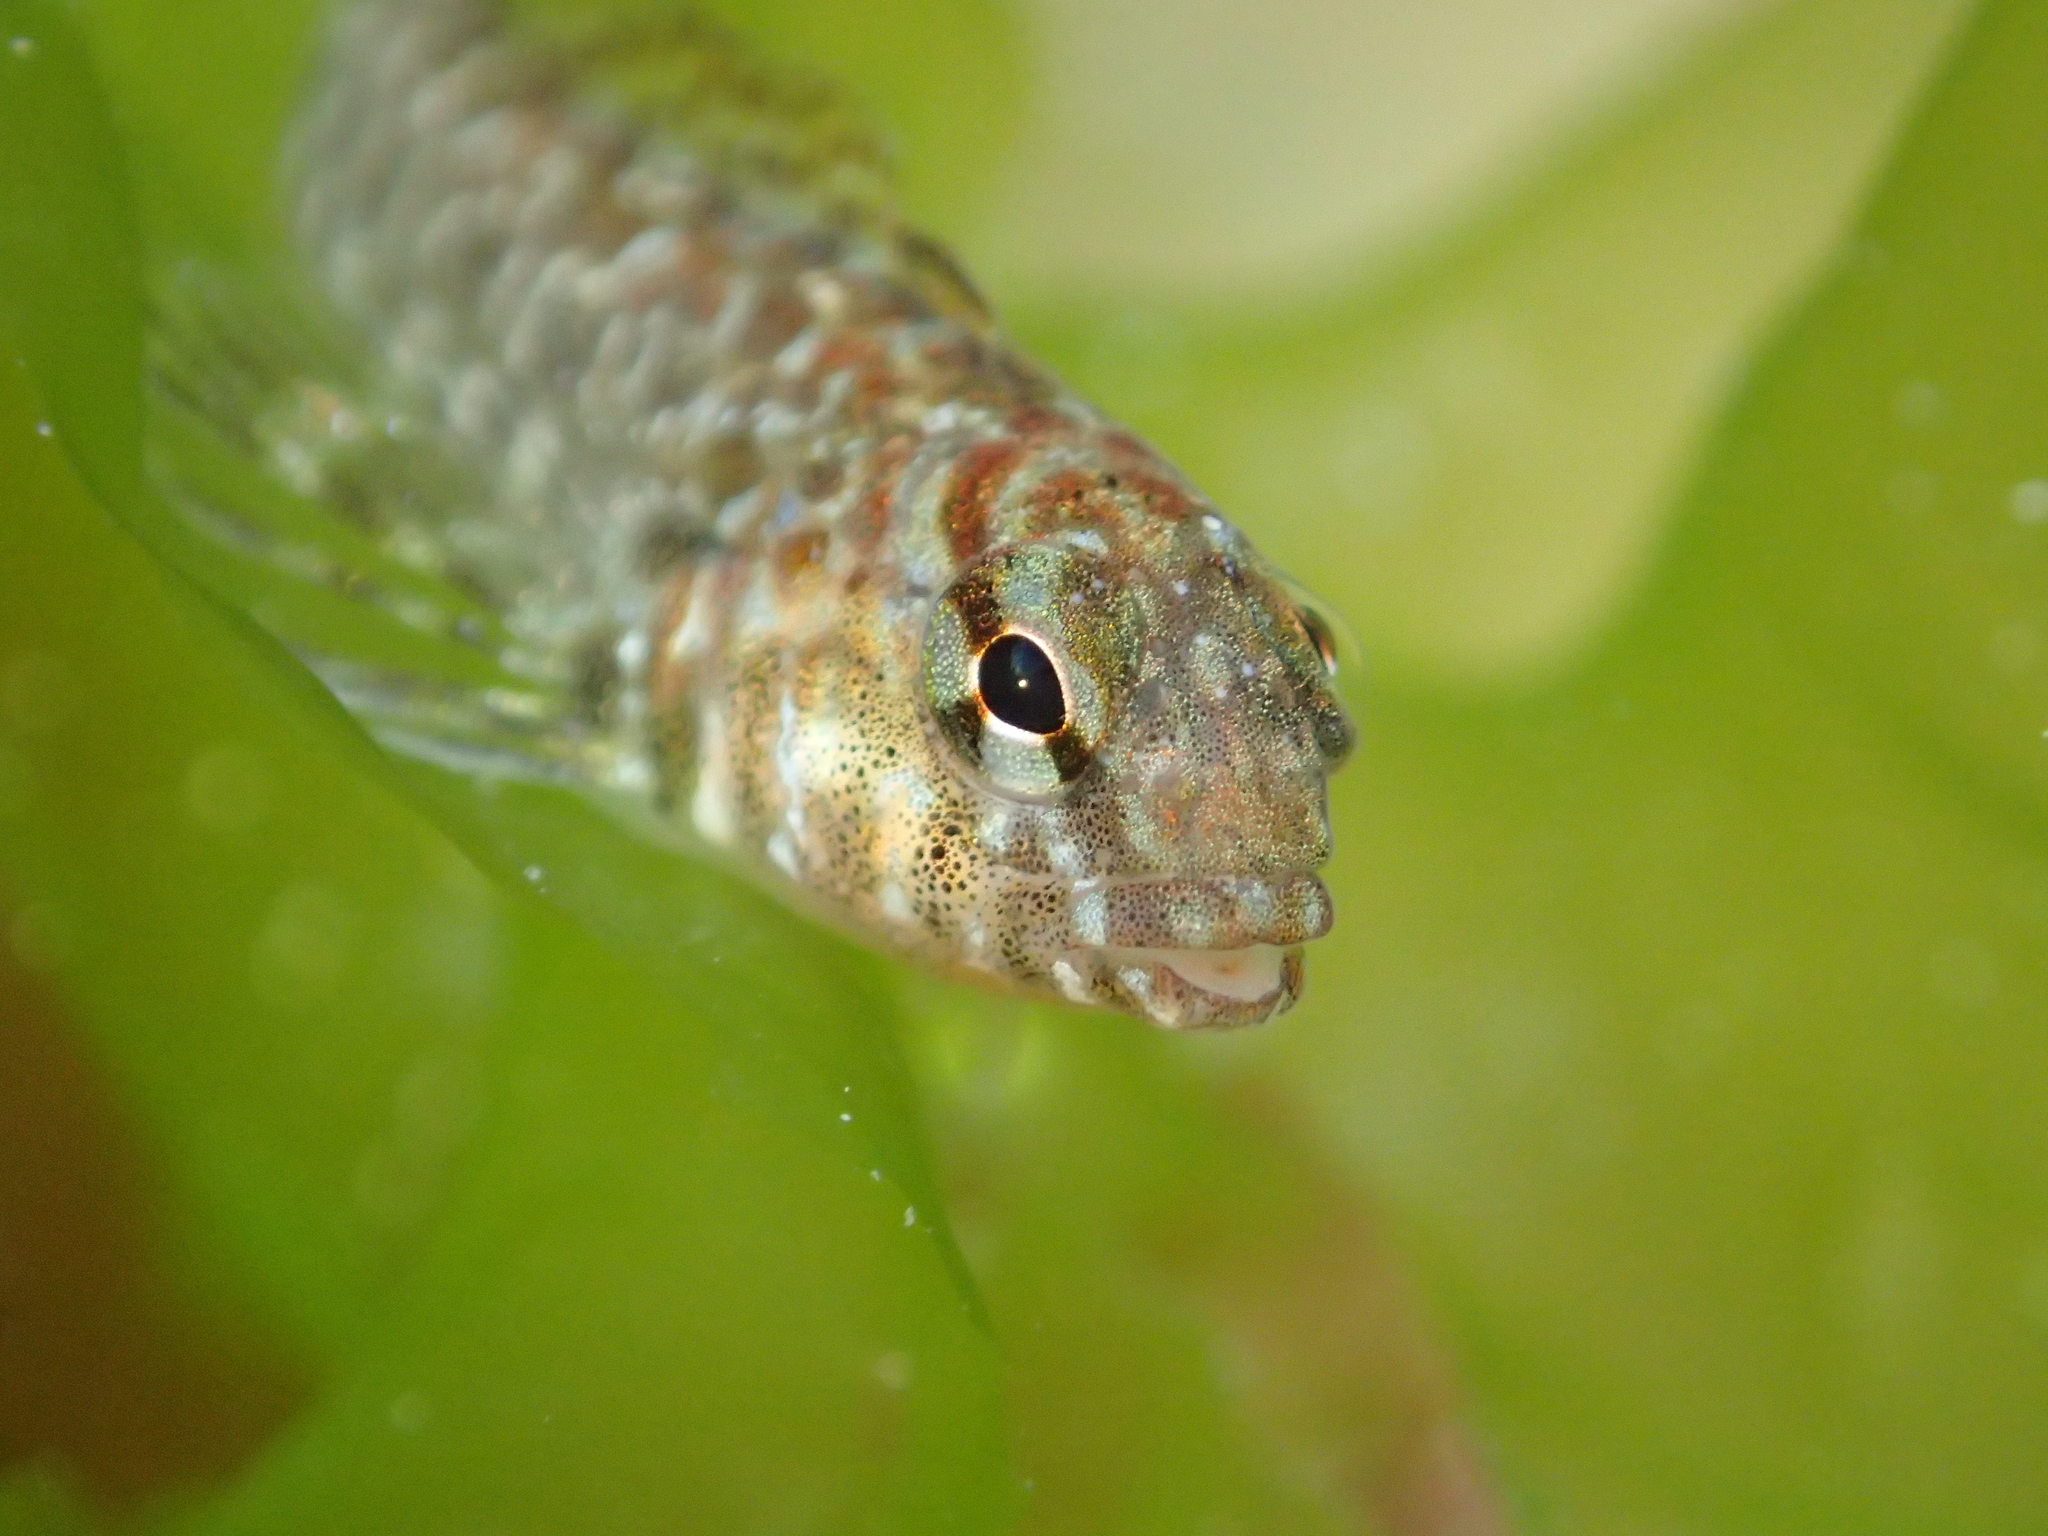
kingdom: Animalia
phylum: Chordata
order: Perciformes
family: Tripterygiidae
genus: Bellapiscis
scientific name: Bellapiscis medius
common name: Twister
